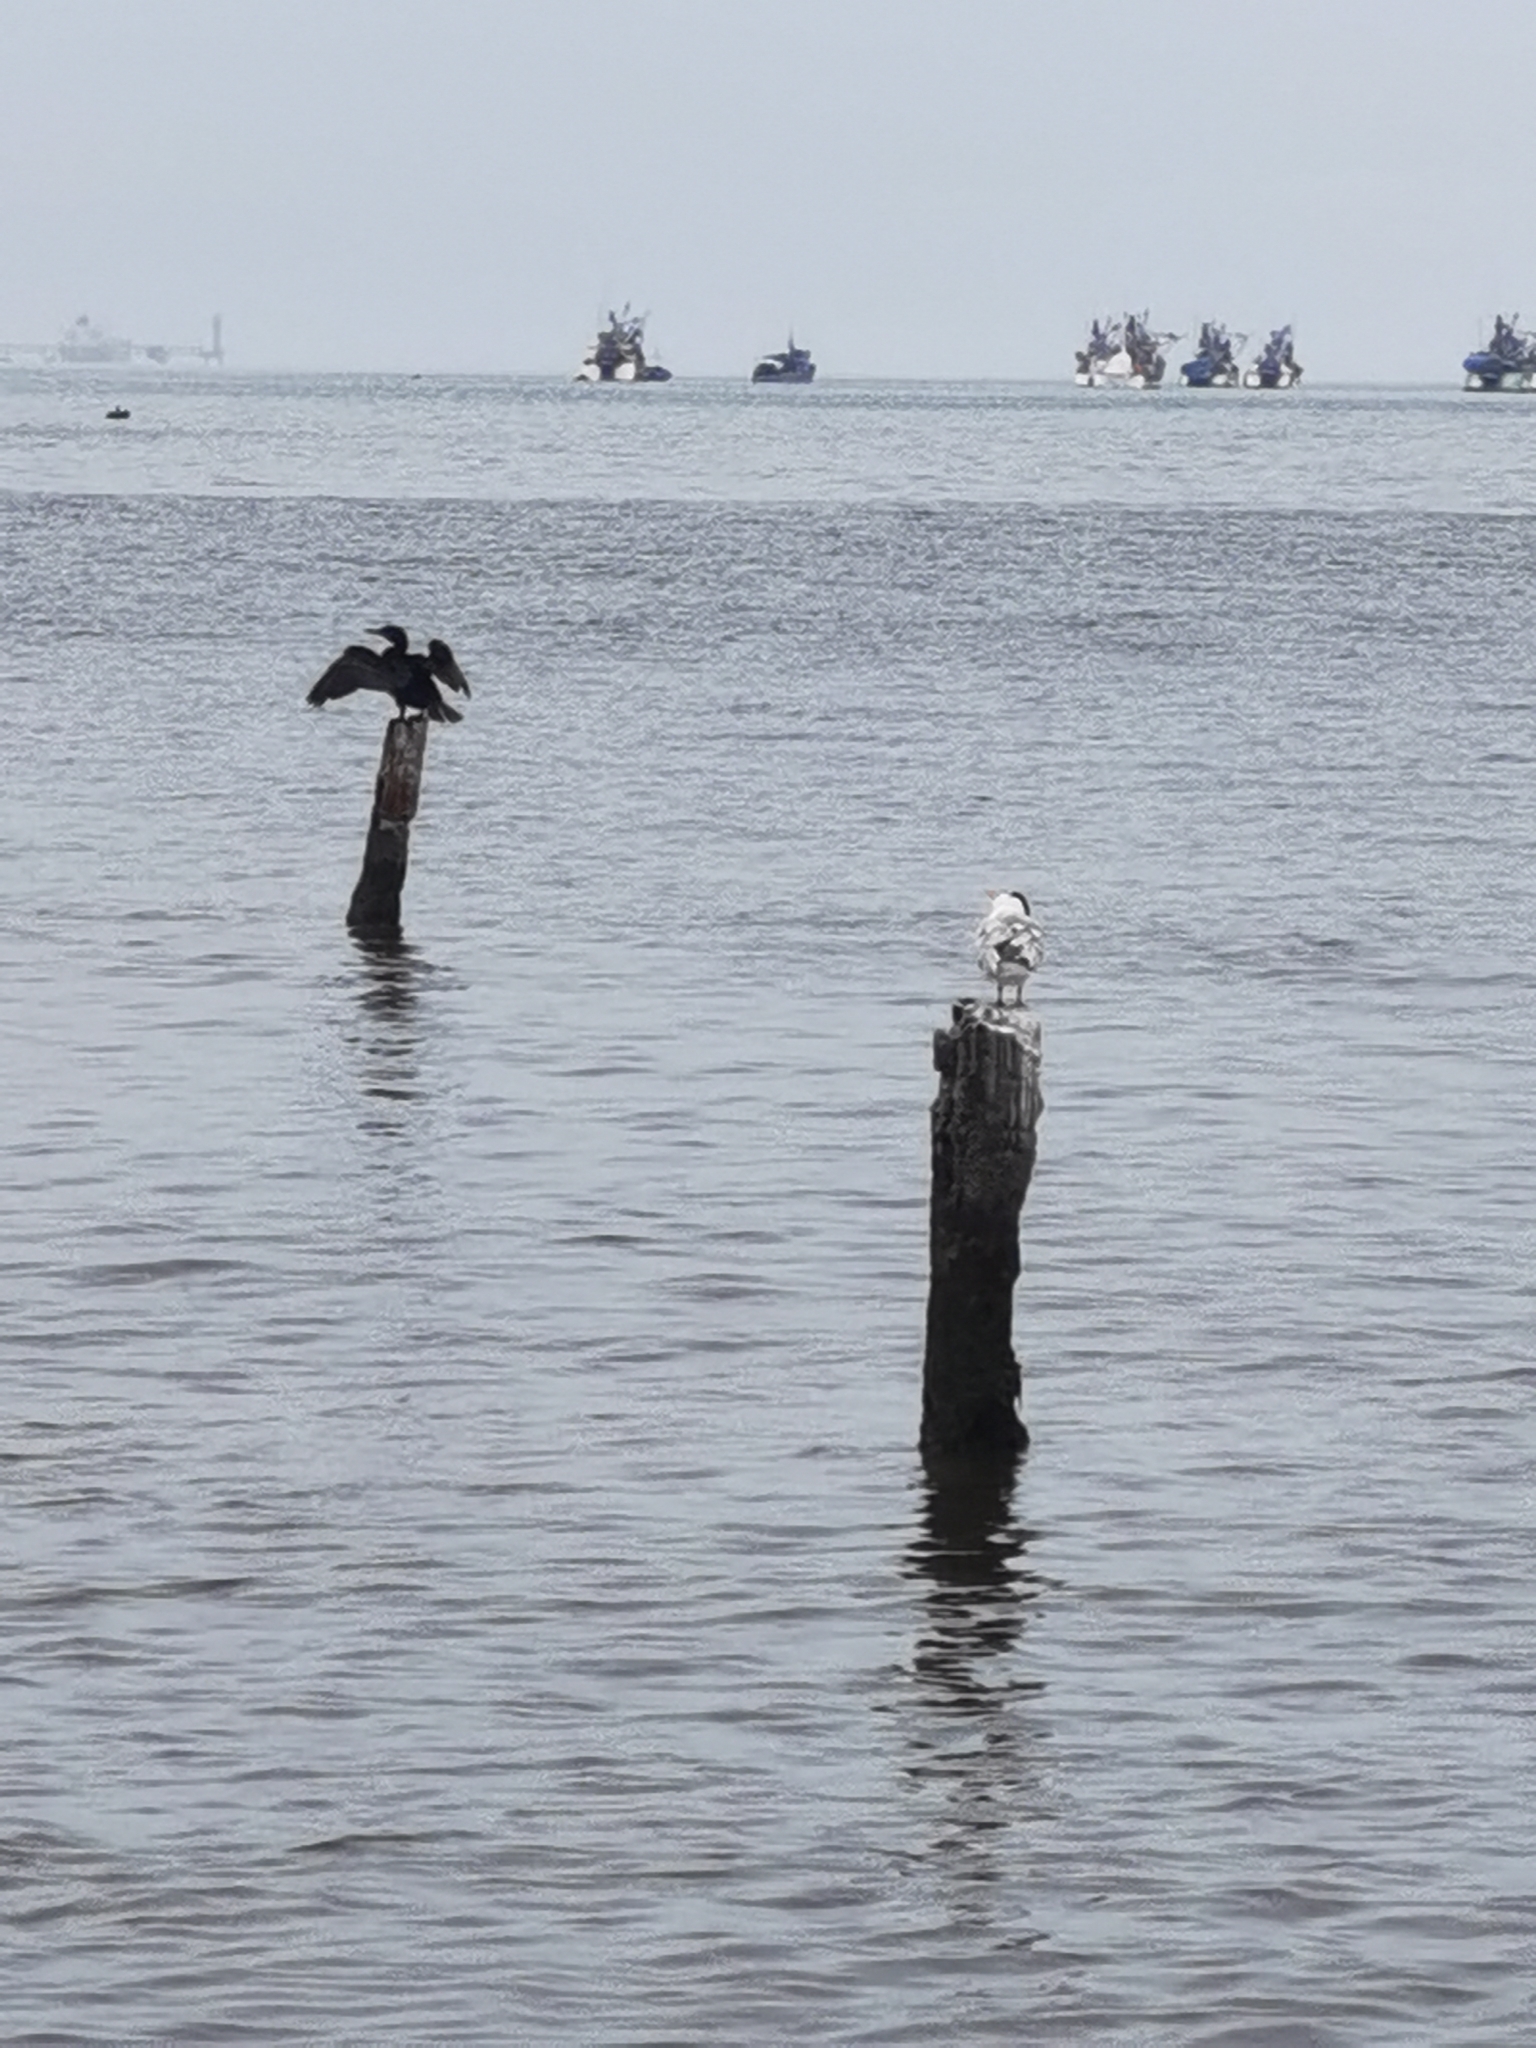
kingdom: Animalia
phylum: Chordata
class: Aves
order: Suliformes
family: Phalacrocoracidae
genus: Phalacrocorax
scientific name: Phalacrocorax brasilianus
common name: Neotropic cormorant
